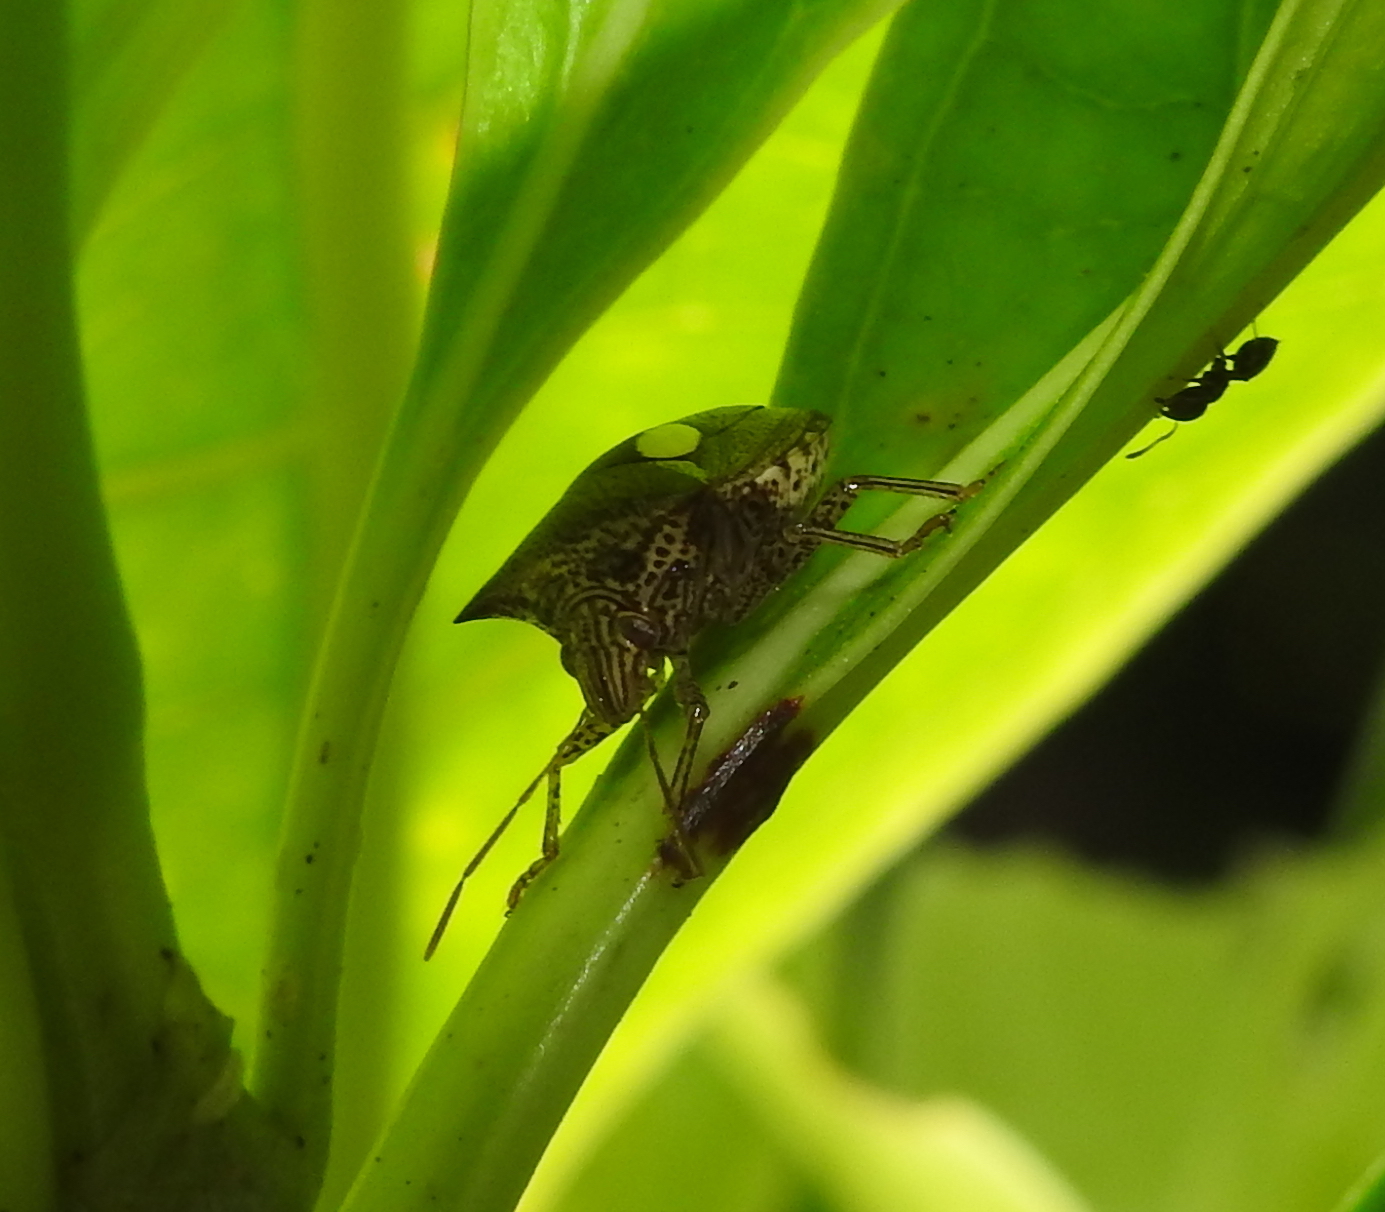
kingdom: Animalia
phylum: Arthropoda
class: Insecta
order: Hemiptera
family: Pentatomidae
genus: Paracritheus
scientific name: Paracritheus
